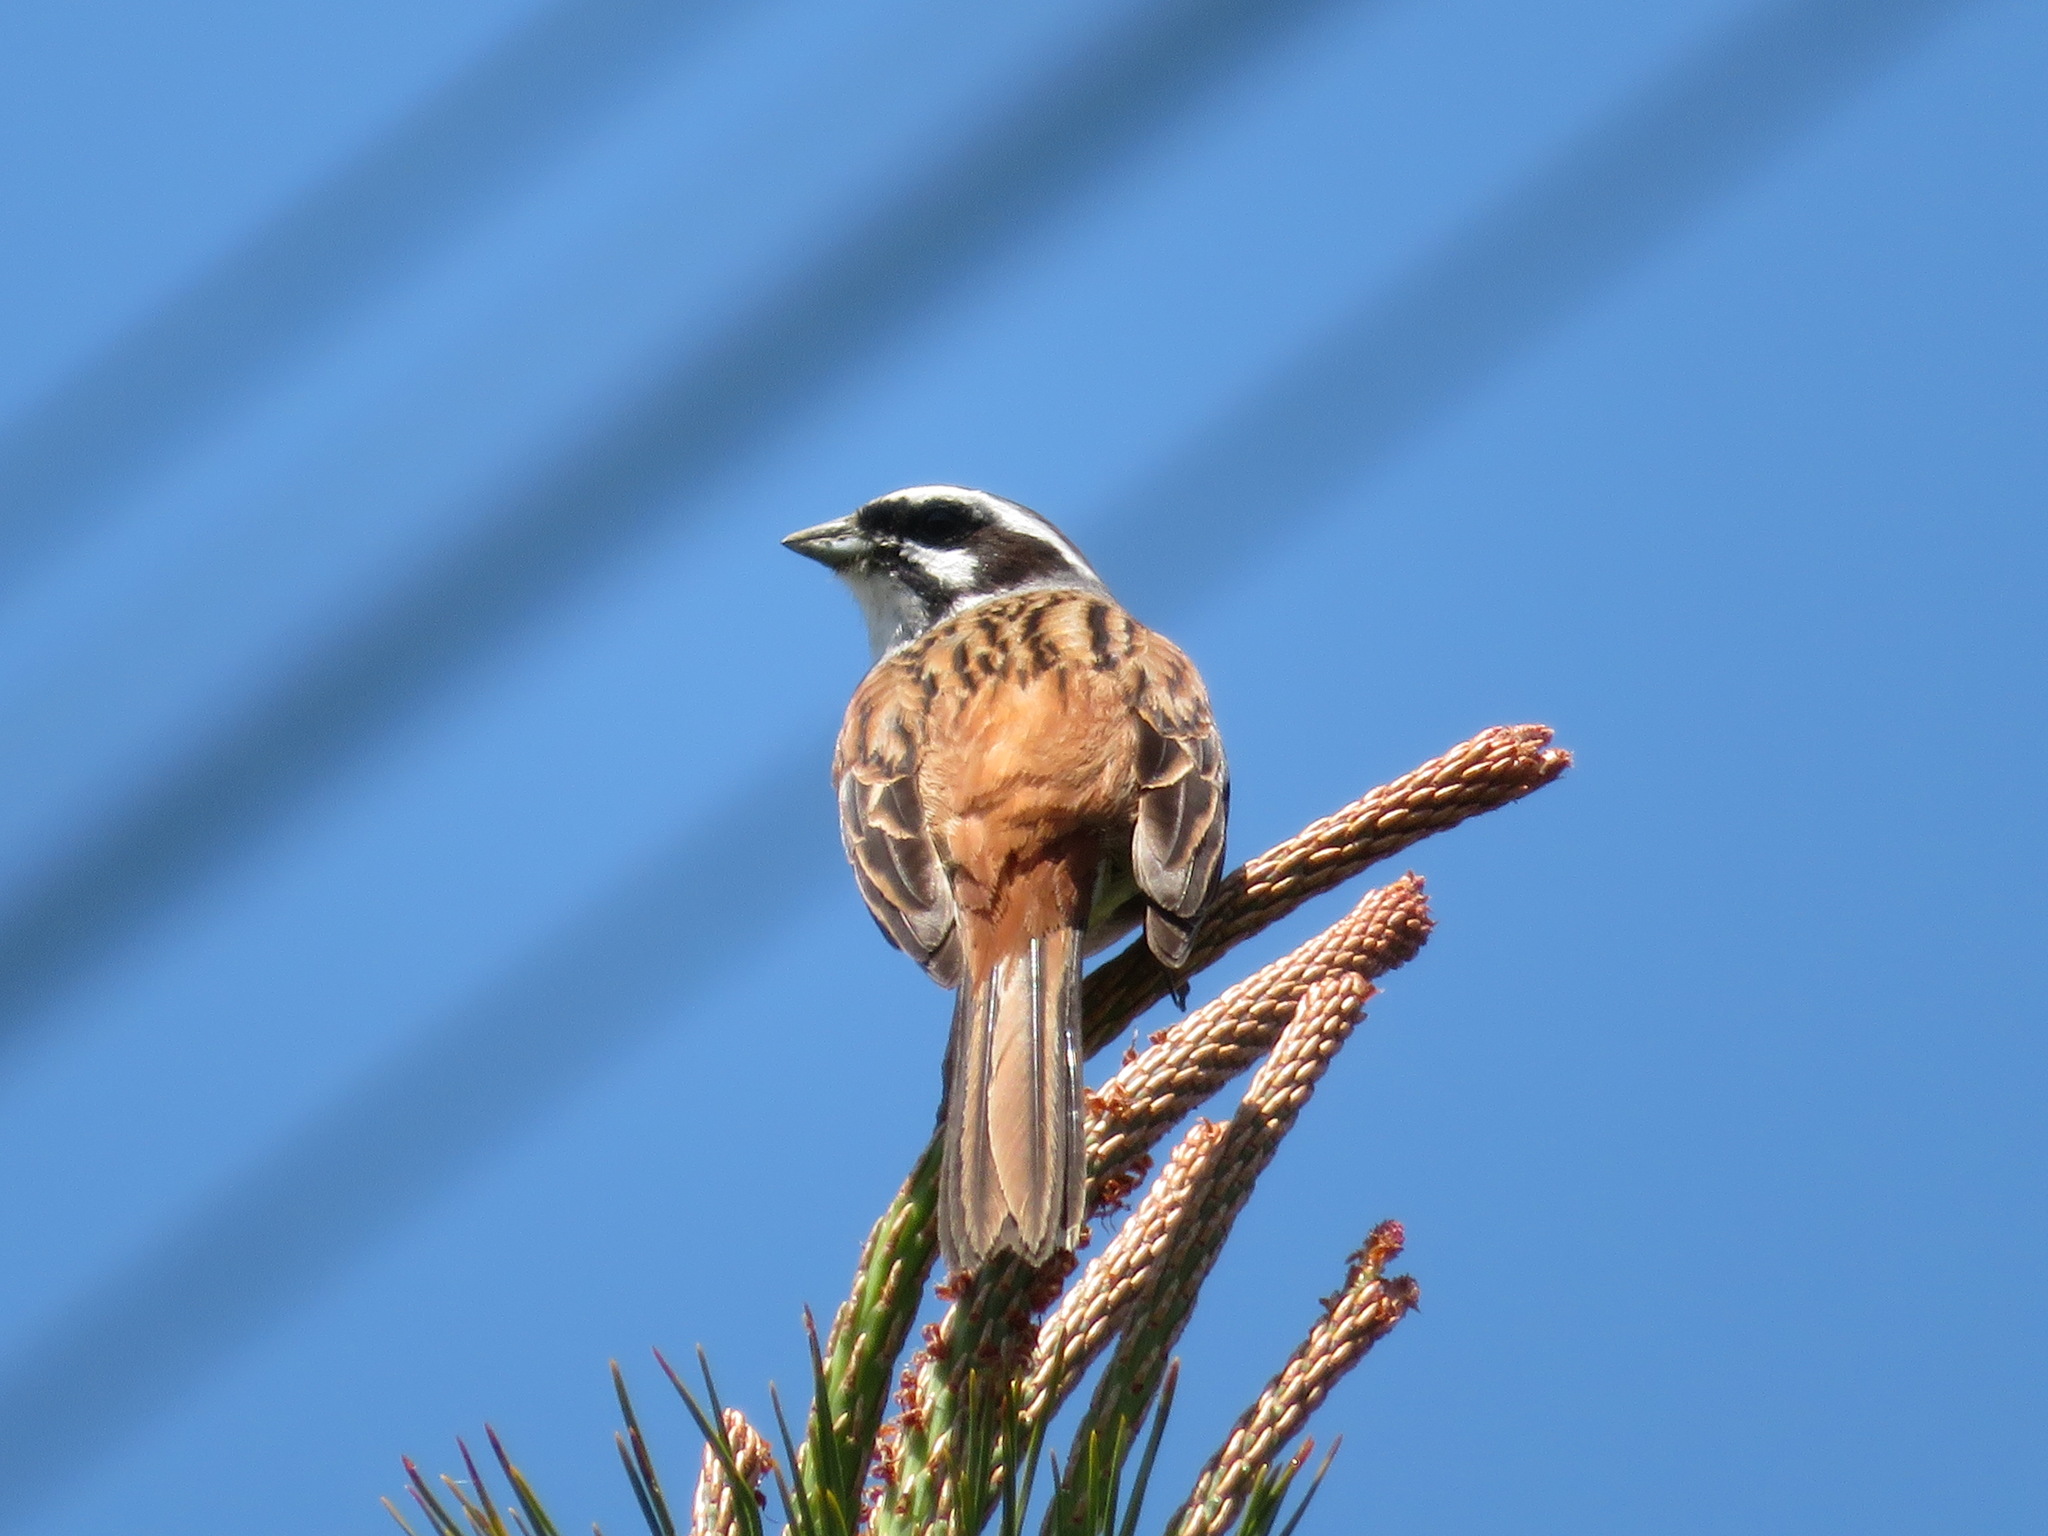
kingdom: Animalia
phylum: Chordata
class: Aves
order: Passeriformes
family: Emberizidae
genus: Emberiza
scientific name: Emberiza cioides
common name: Meadow bunting
